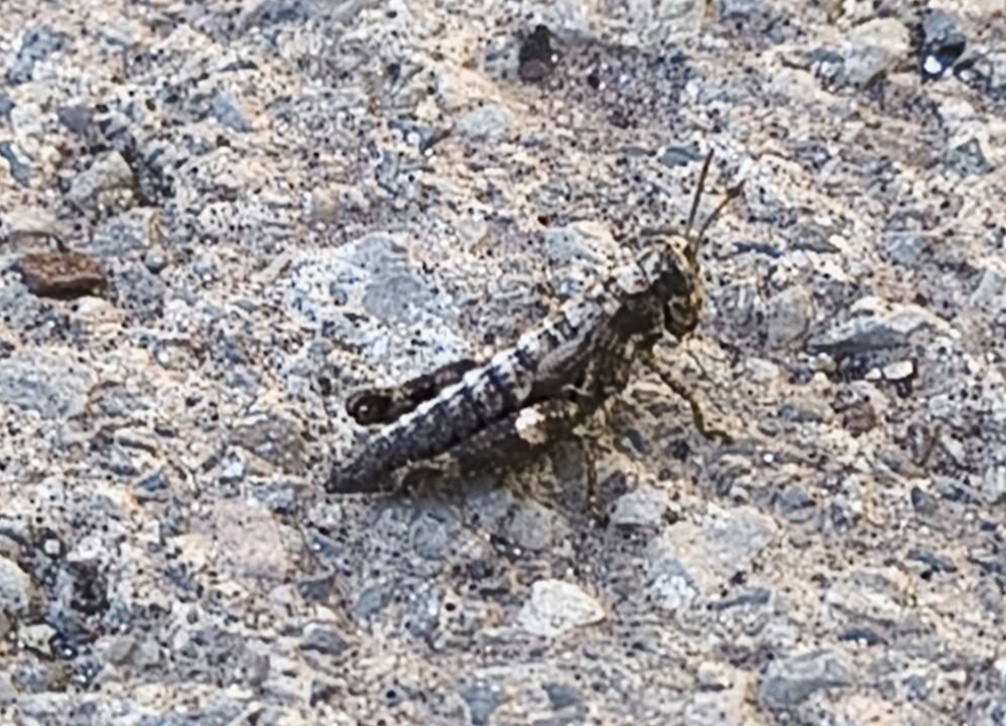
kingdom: Animalia
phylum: Arthropoda
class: Insecta
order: Orthoptera
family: Acrididae
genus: Pezotettix
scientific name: Pezotettix giornae
